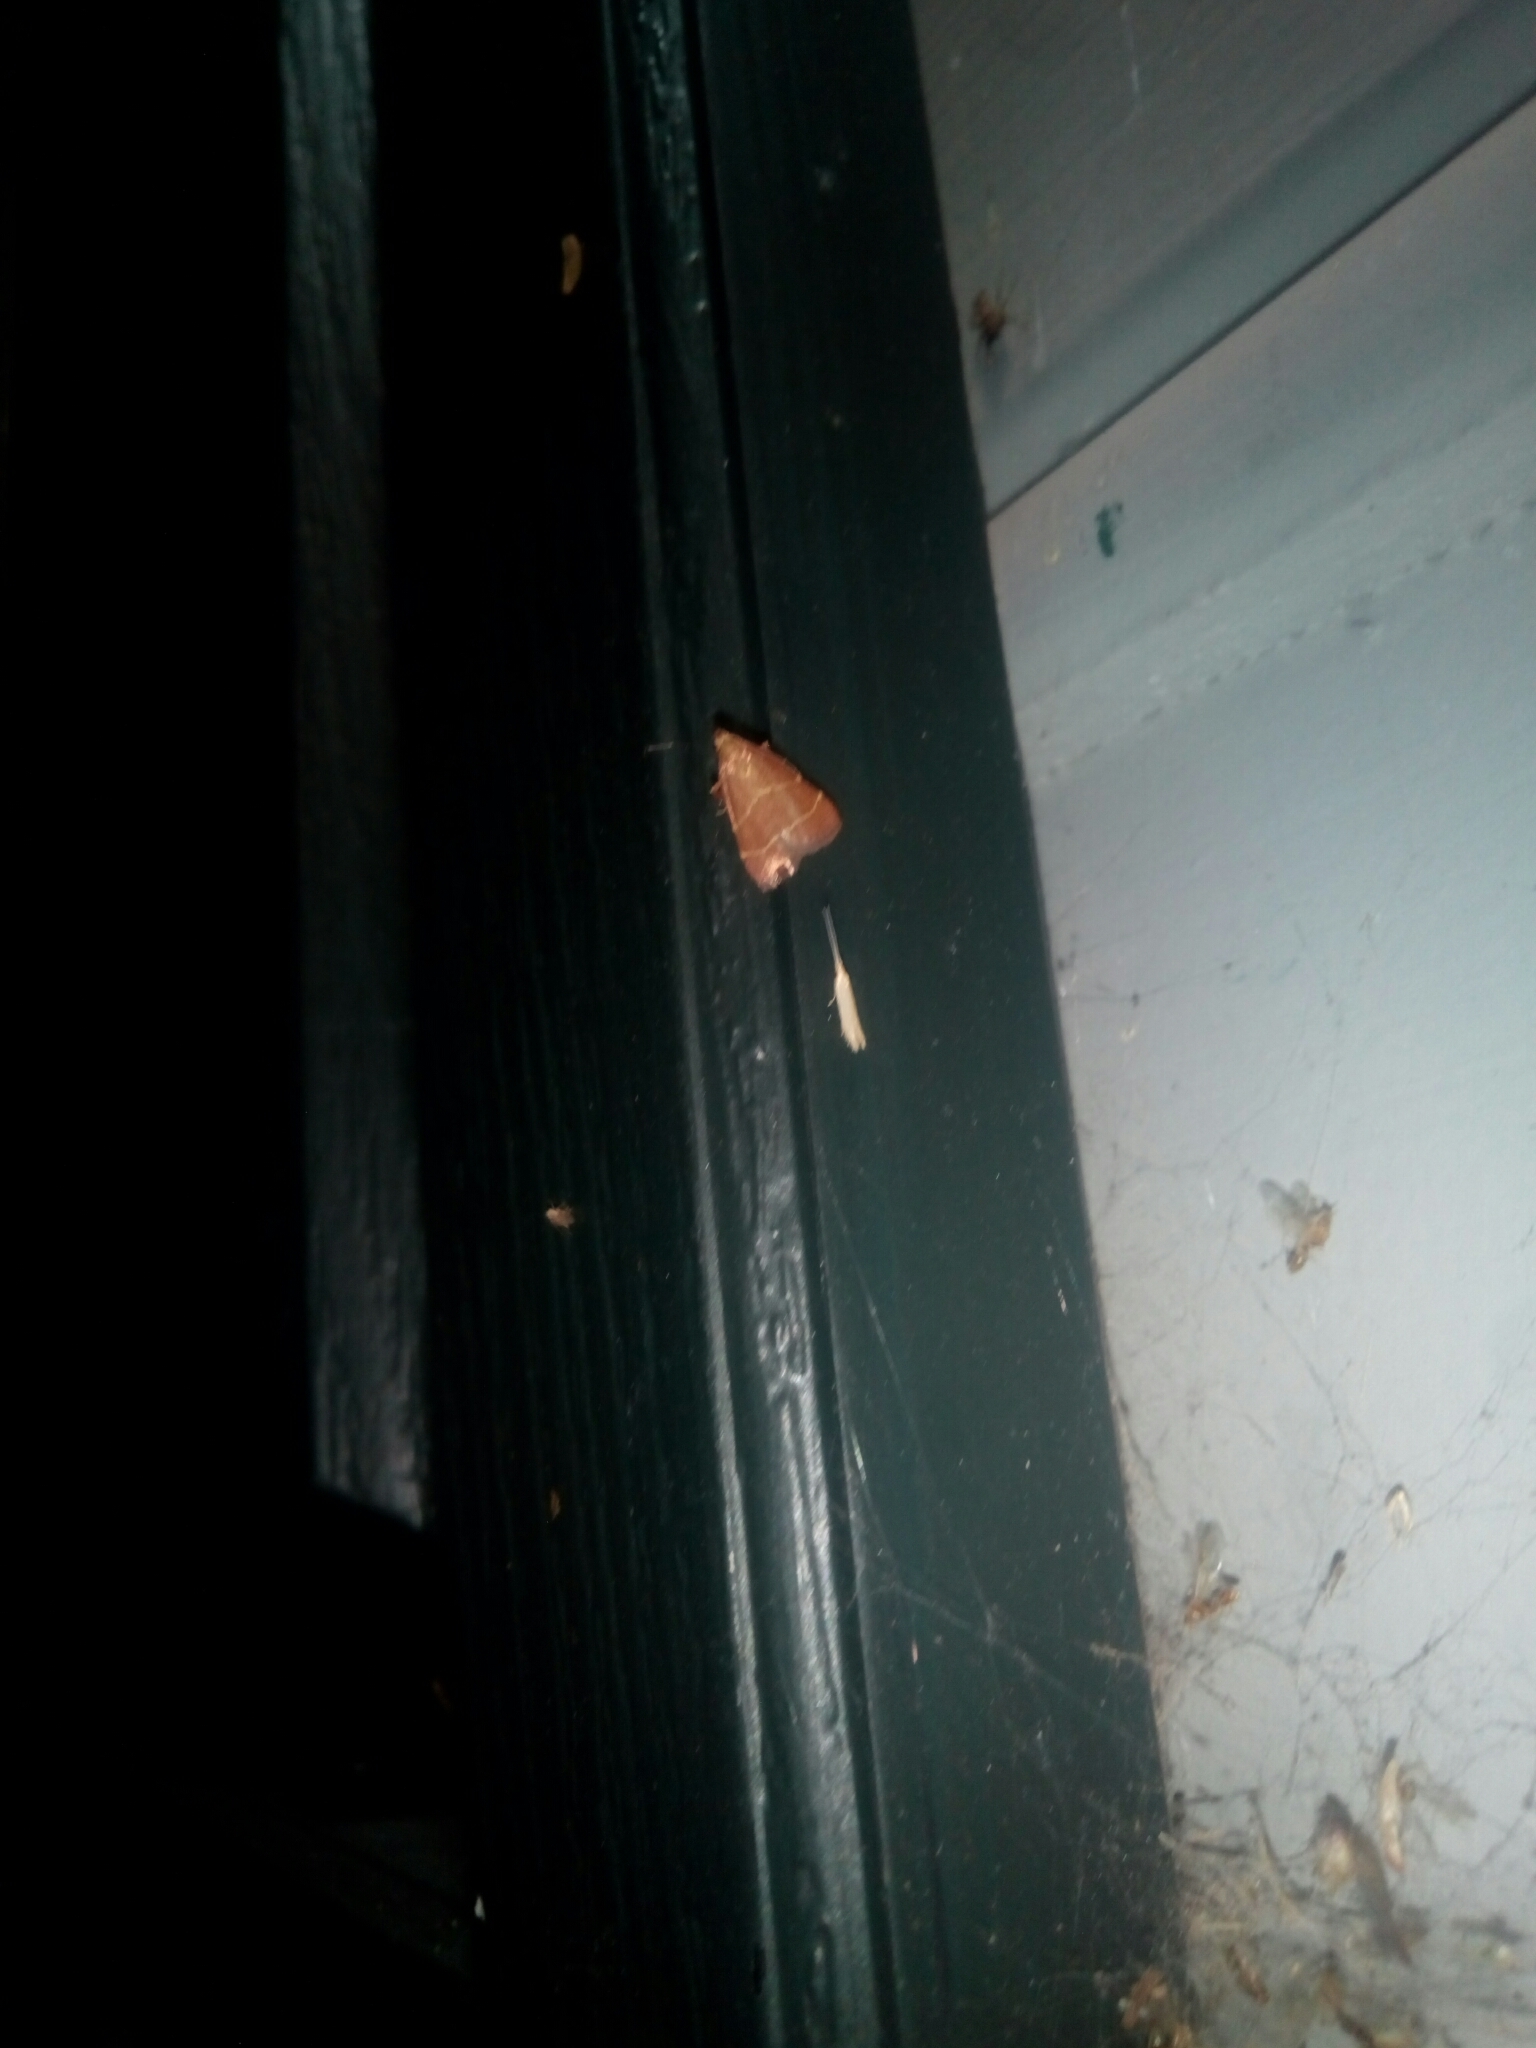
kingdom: Animalia
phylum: Arthropoda
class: Insecta
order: Lepidoptera
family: Pyralidae
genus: Arta
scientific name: Arta statalis
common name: Posturing arta moth
